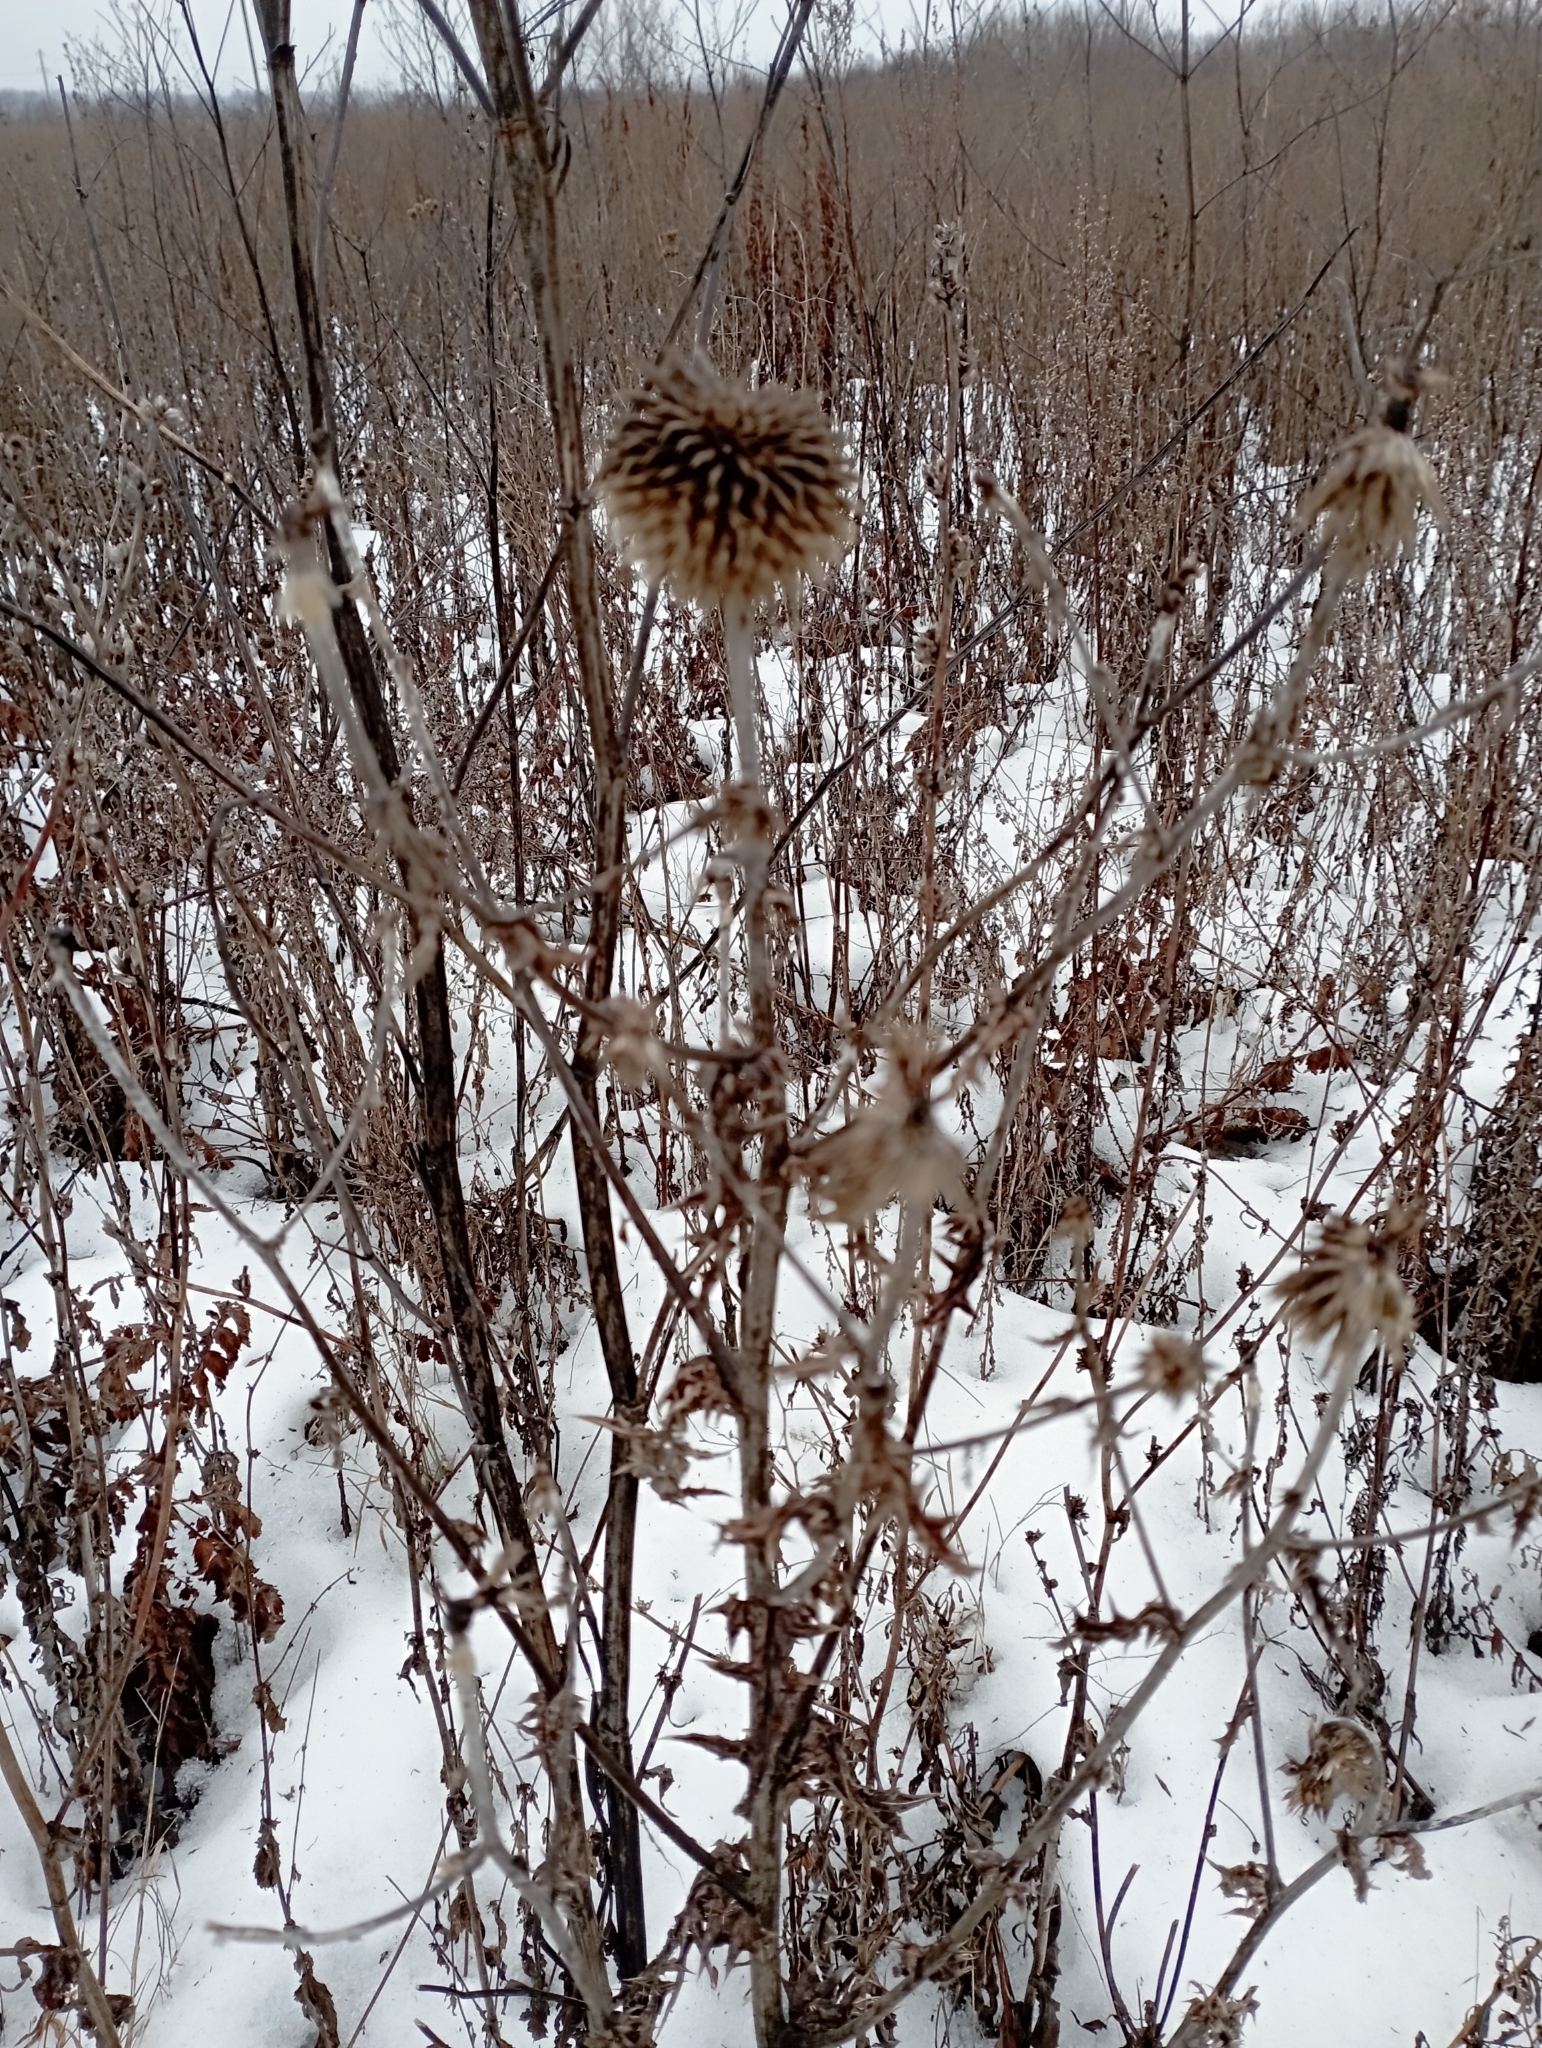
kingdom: Plantae
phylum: Tracheophyta
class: Magnoliopsida
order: Asterales
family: Asteraceae
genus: Echinops
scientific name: Echinops sphaerocephalus
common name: Glandular globe-thistle
